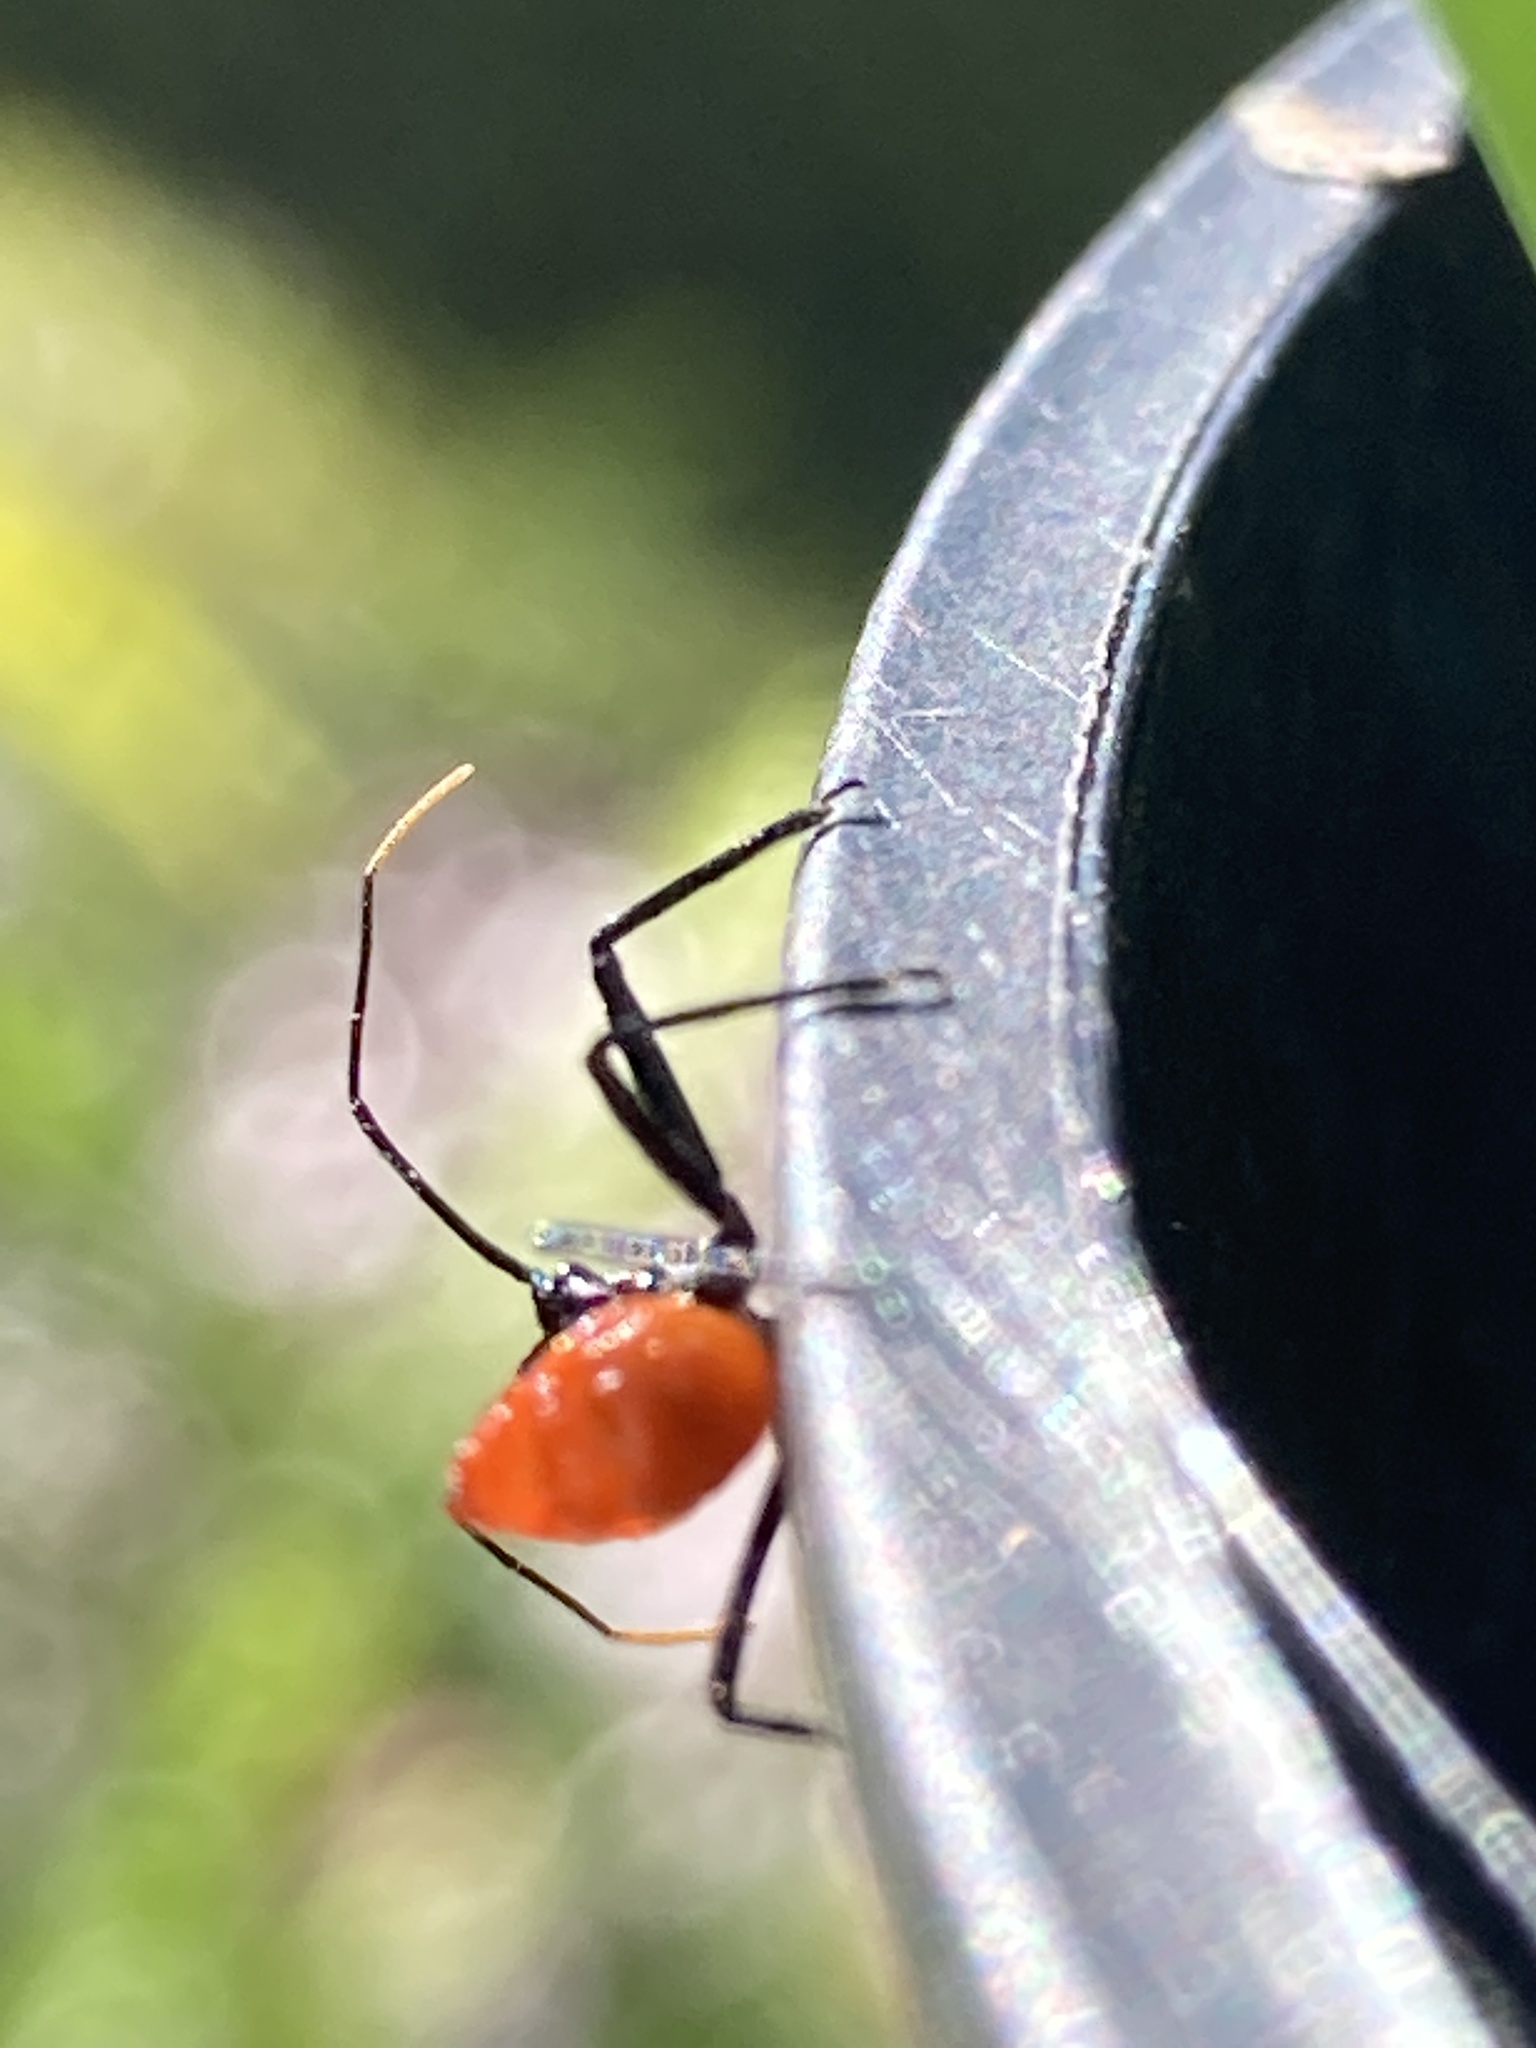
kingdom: Animalia
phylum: Arthropoda
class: Insecta
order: Hemiptera
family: Reduviidae
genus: Arilus
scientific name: Arilus cristatus
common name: North american wheel bug
